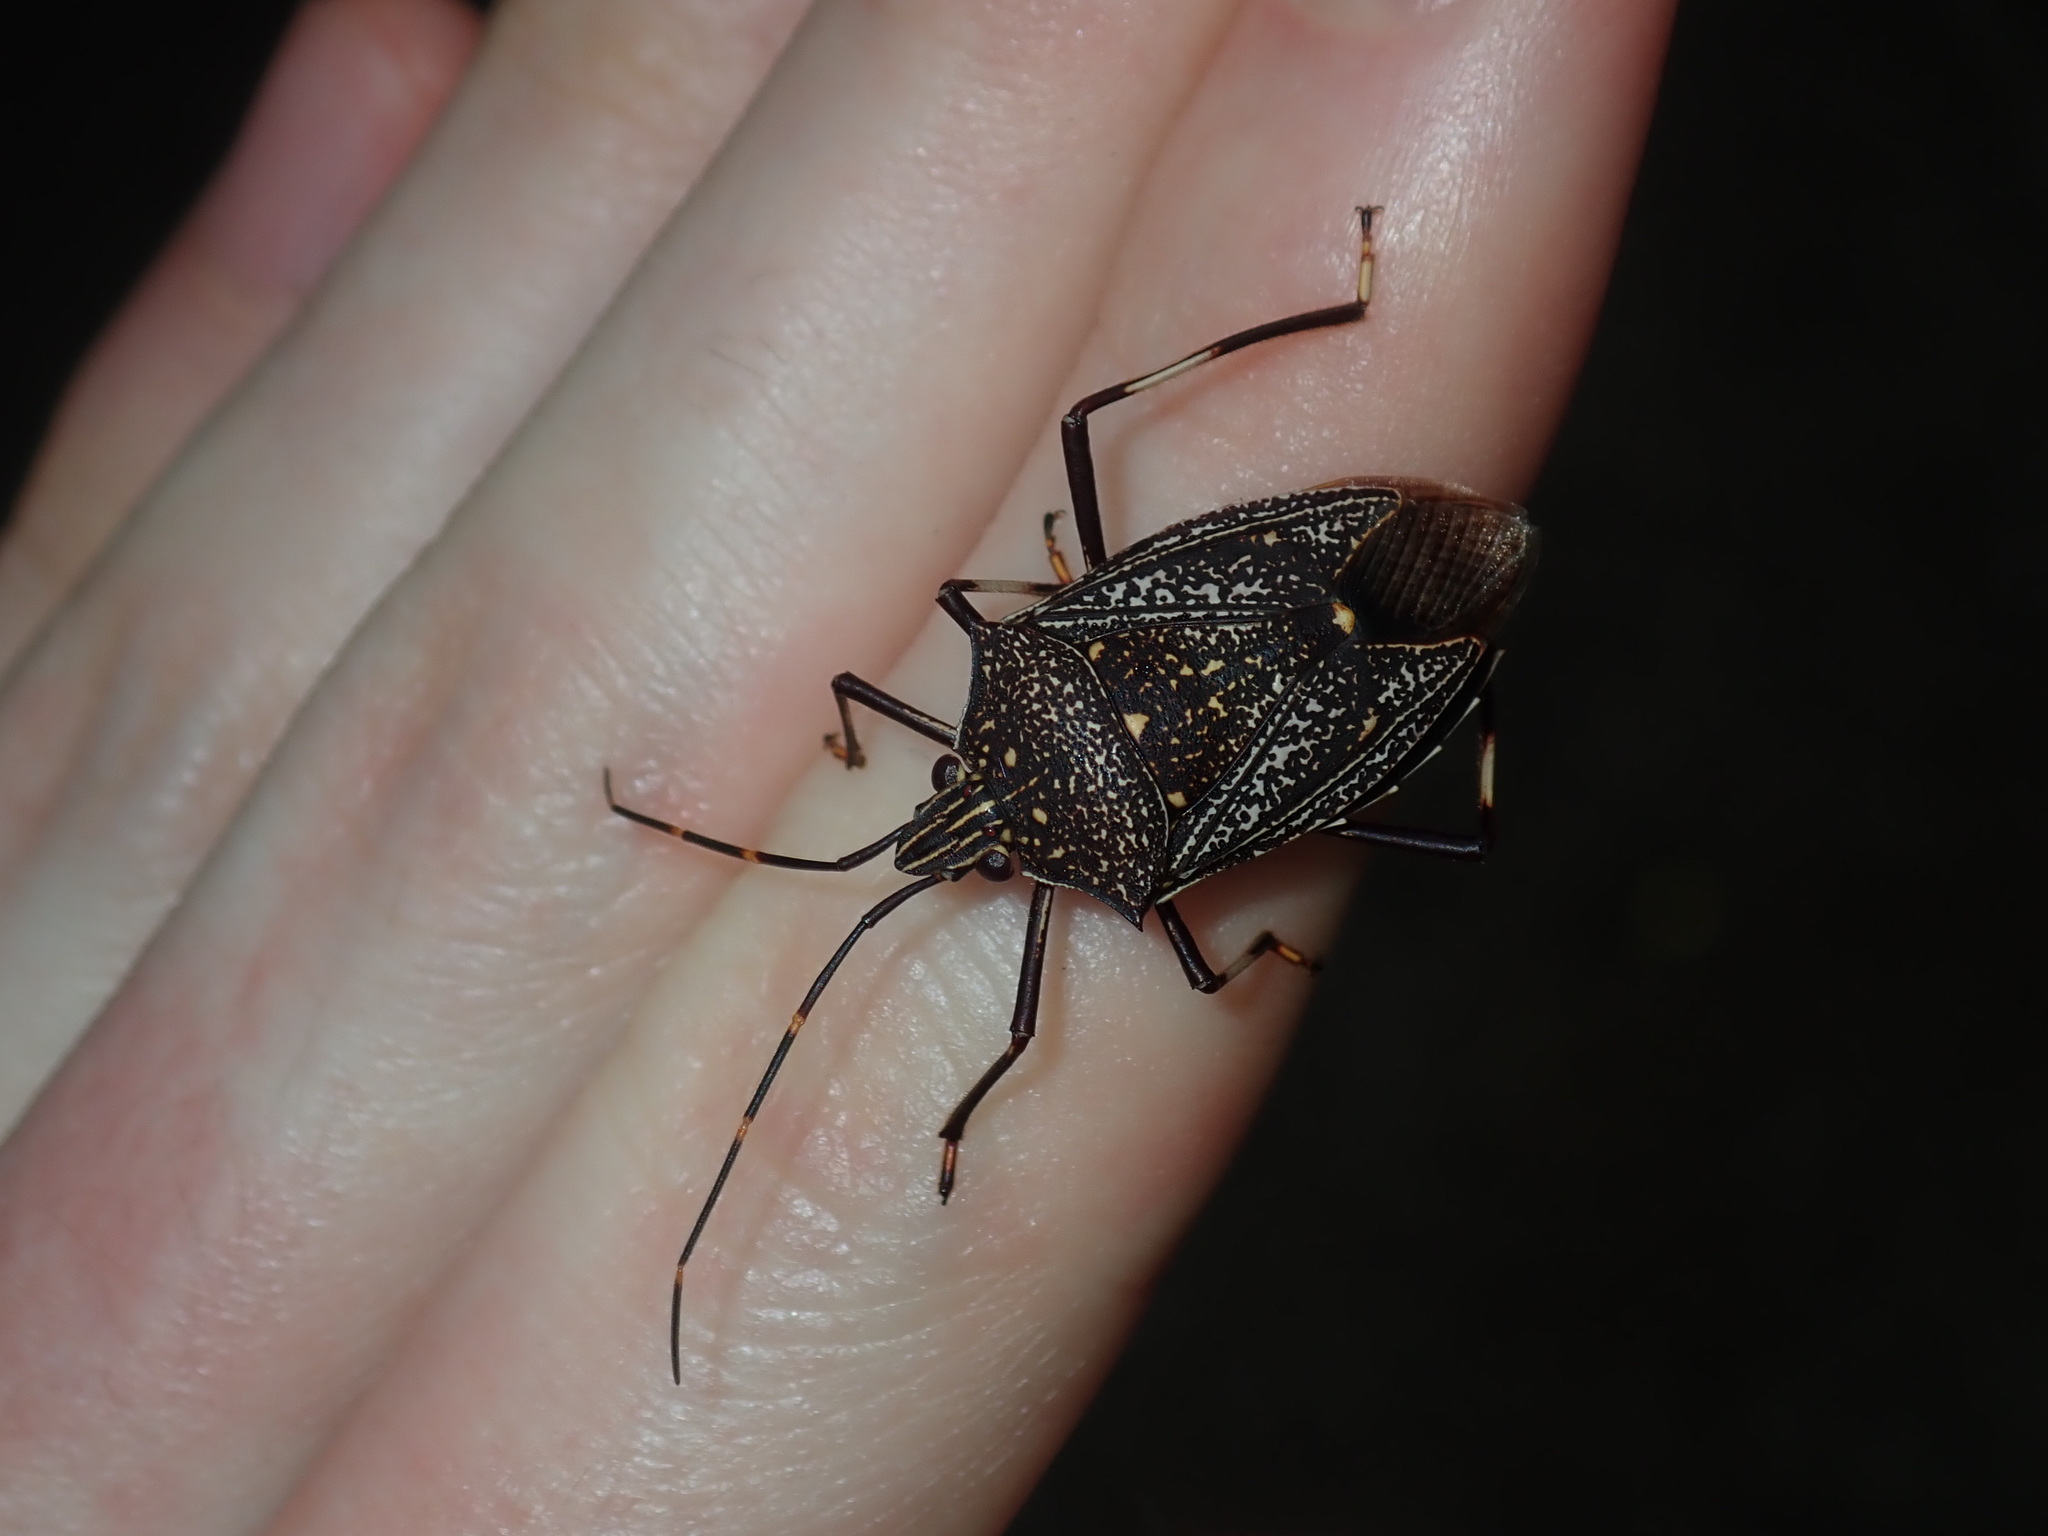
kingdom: Animalia
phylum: Arthropoda
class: Insecta
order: Hemiptera
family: Pentatomidae
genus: Poecilometis
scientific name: Poecilometis
